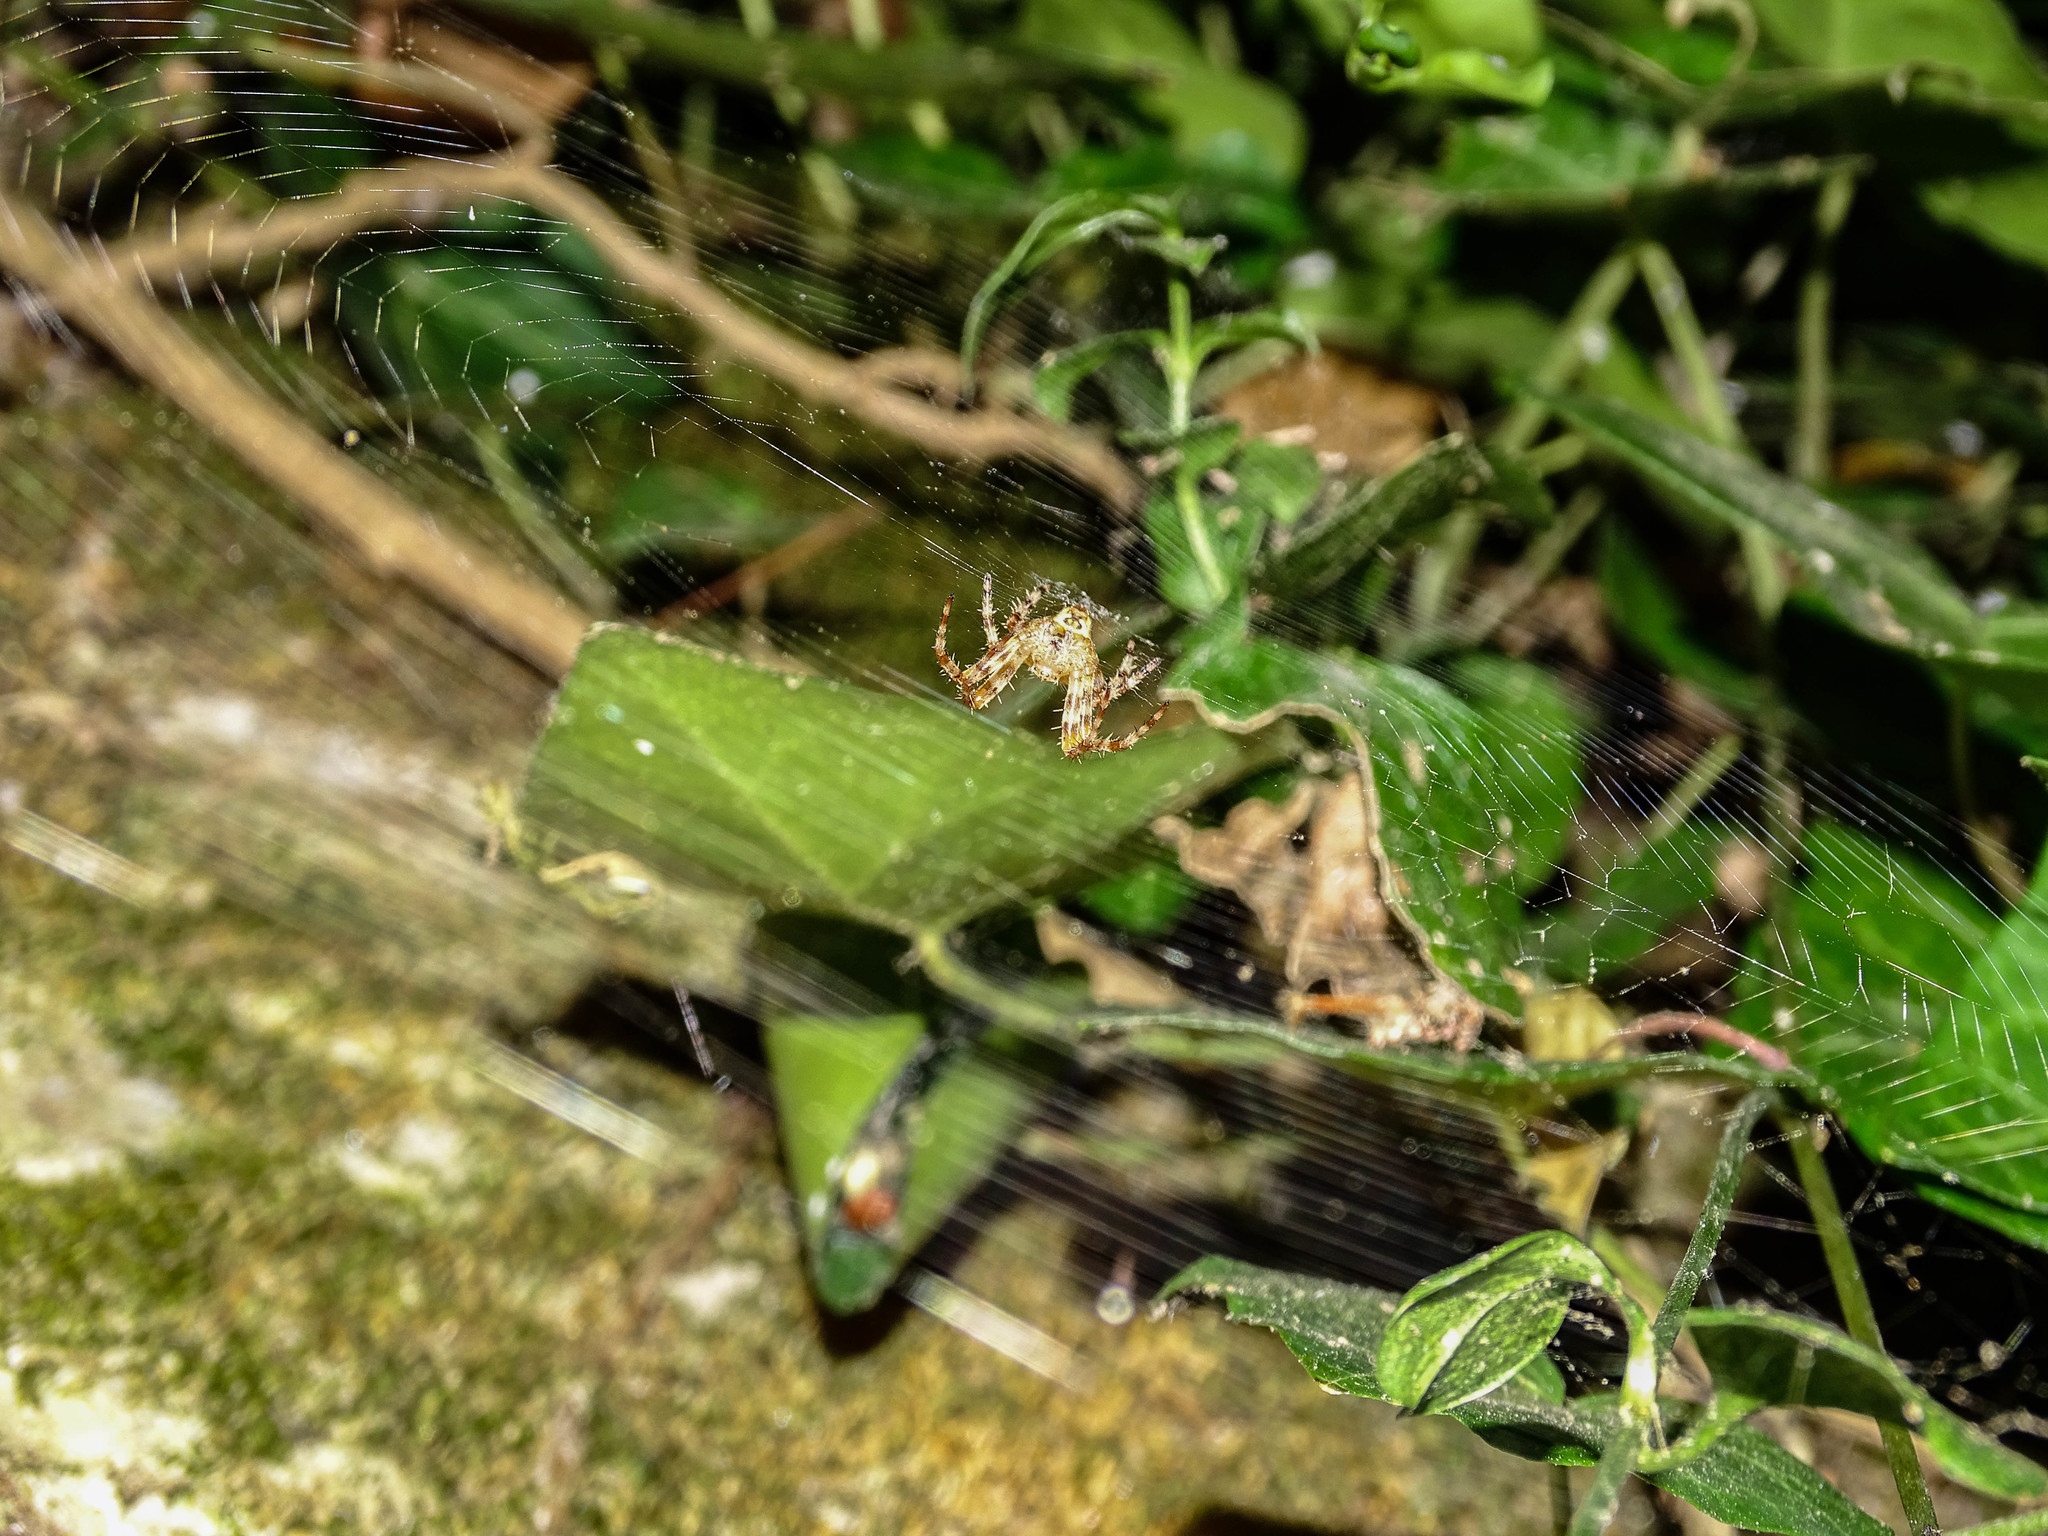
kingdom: Animalia
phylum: Arthropoda
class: Arachnida
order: Araneae
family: Araneidae
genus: Araneus
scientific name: Araneus diadematus
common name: Cross orbweaver
